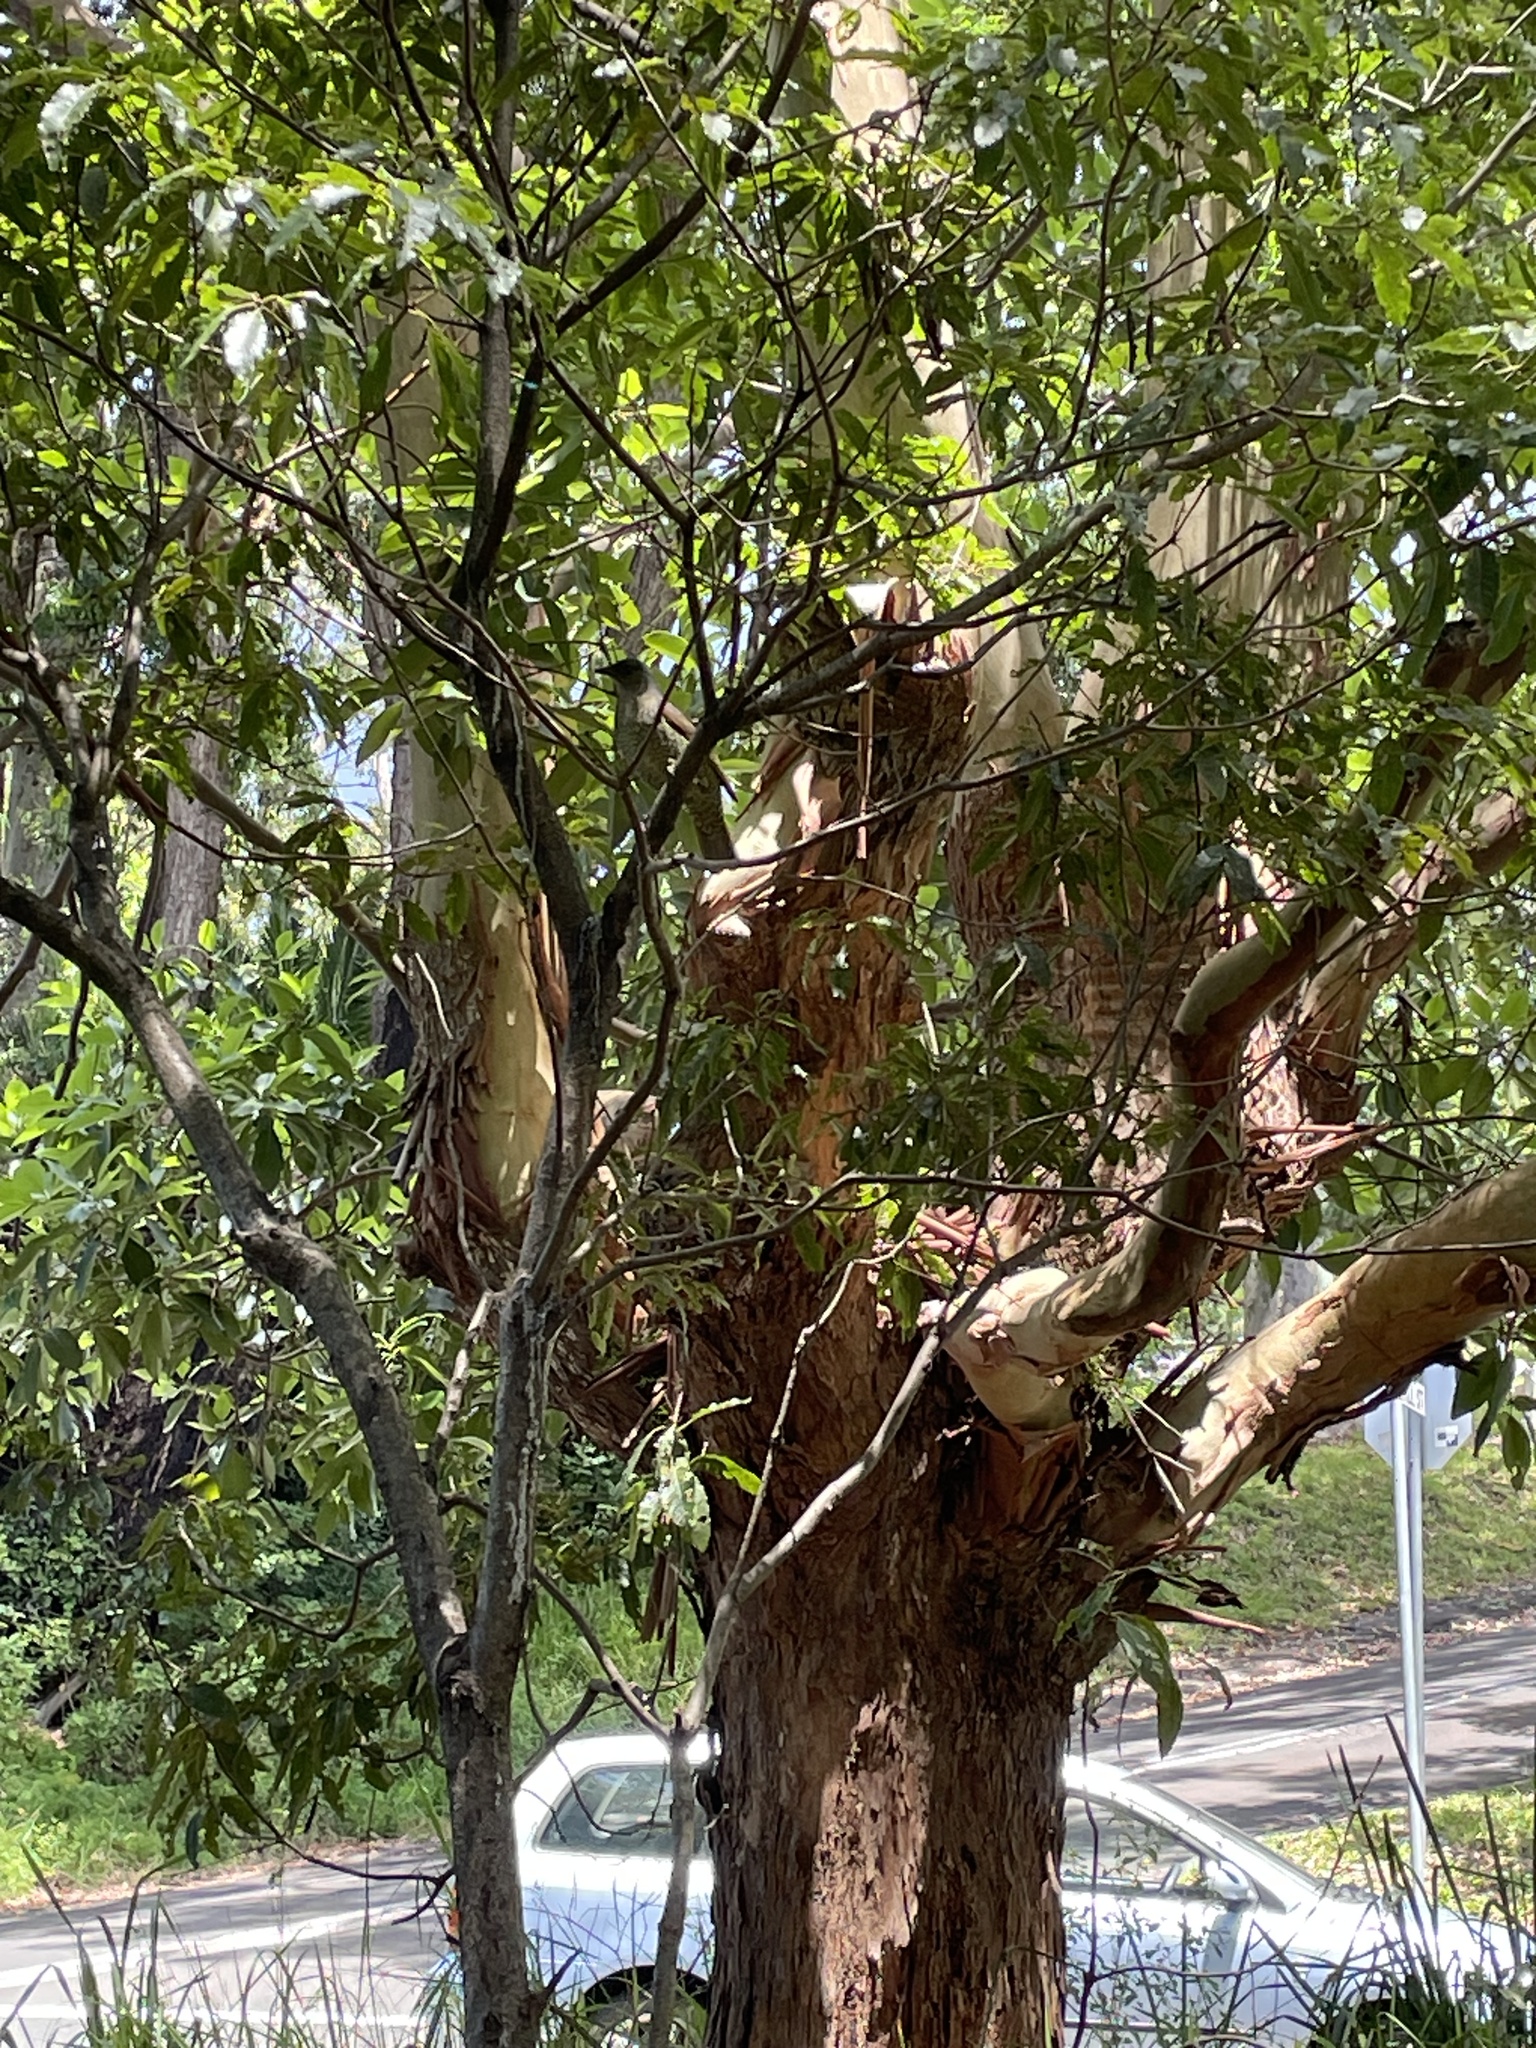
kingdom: Animalia
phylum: Chordata
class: Aves
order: Passeriformes
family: Ptilonorhynchidae
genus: Ptilonorhynchus
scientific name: Ptilonorhynchus violaceus
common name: Satin bowerbird
